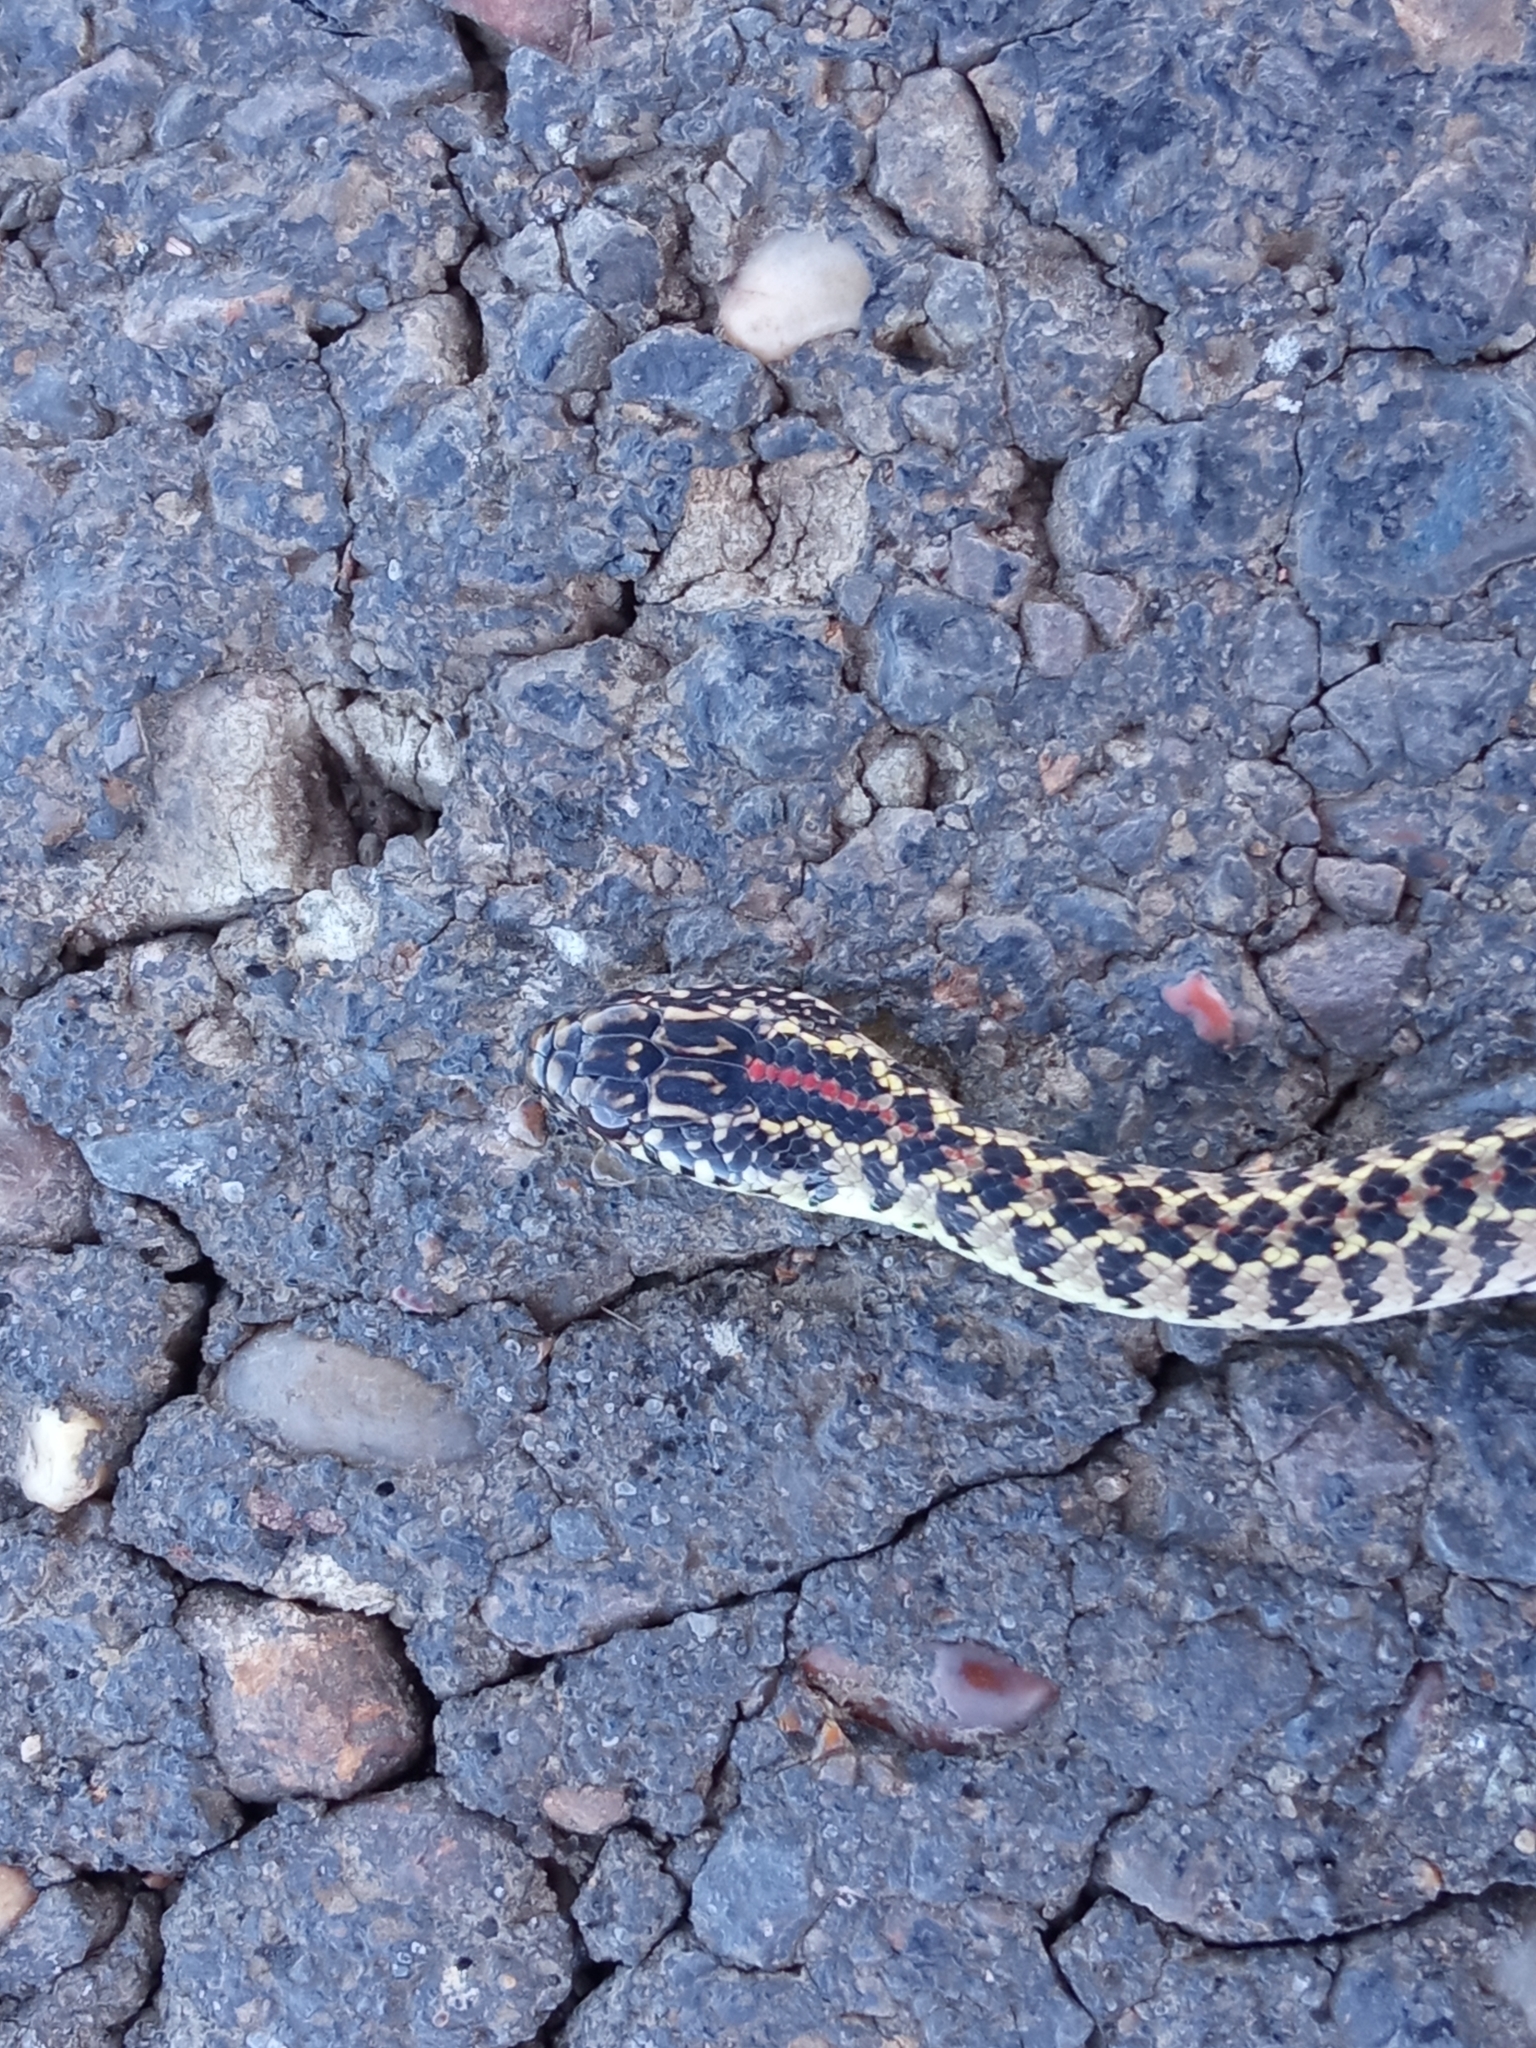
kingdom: Animalia
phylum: Chordata
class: Squamata
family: Colubridae
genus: Lygophis
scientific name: Lygophis anomalus
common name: English common name not available
